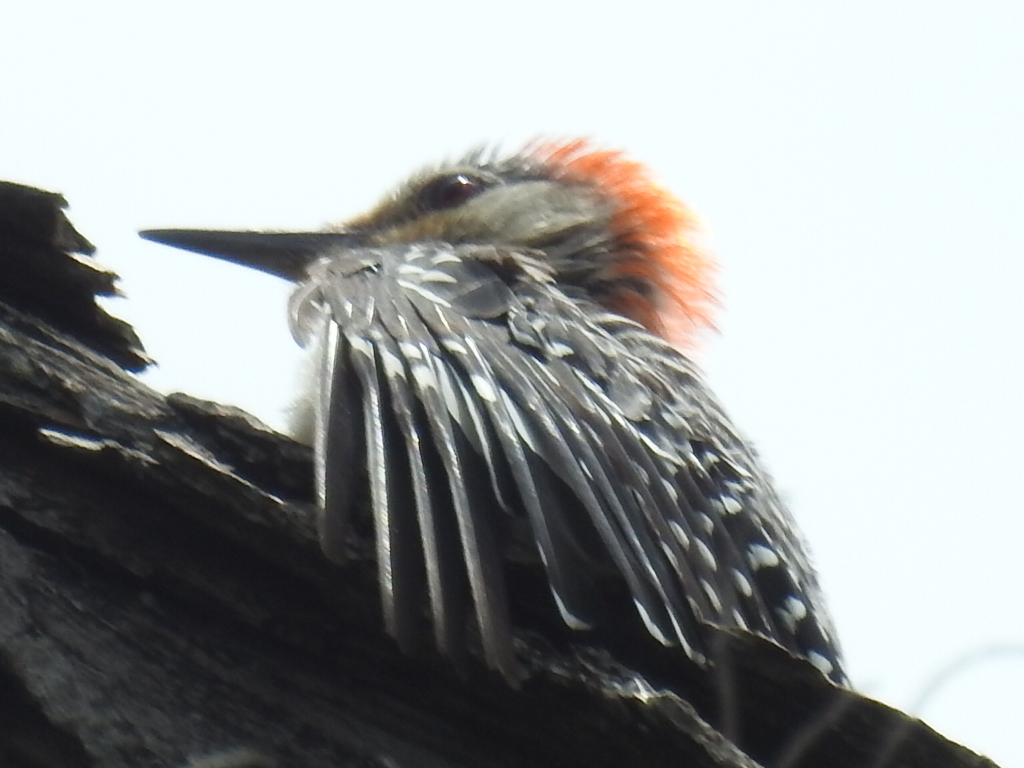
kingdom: Animalia
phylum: Chordata
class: Aves
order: Piciformes
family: Picidae
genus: Melanerpes
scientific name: Melanerpes carolinus
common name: Red-bellied woodpecker
